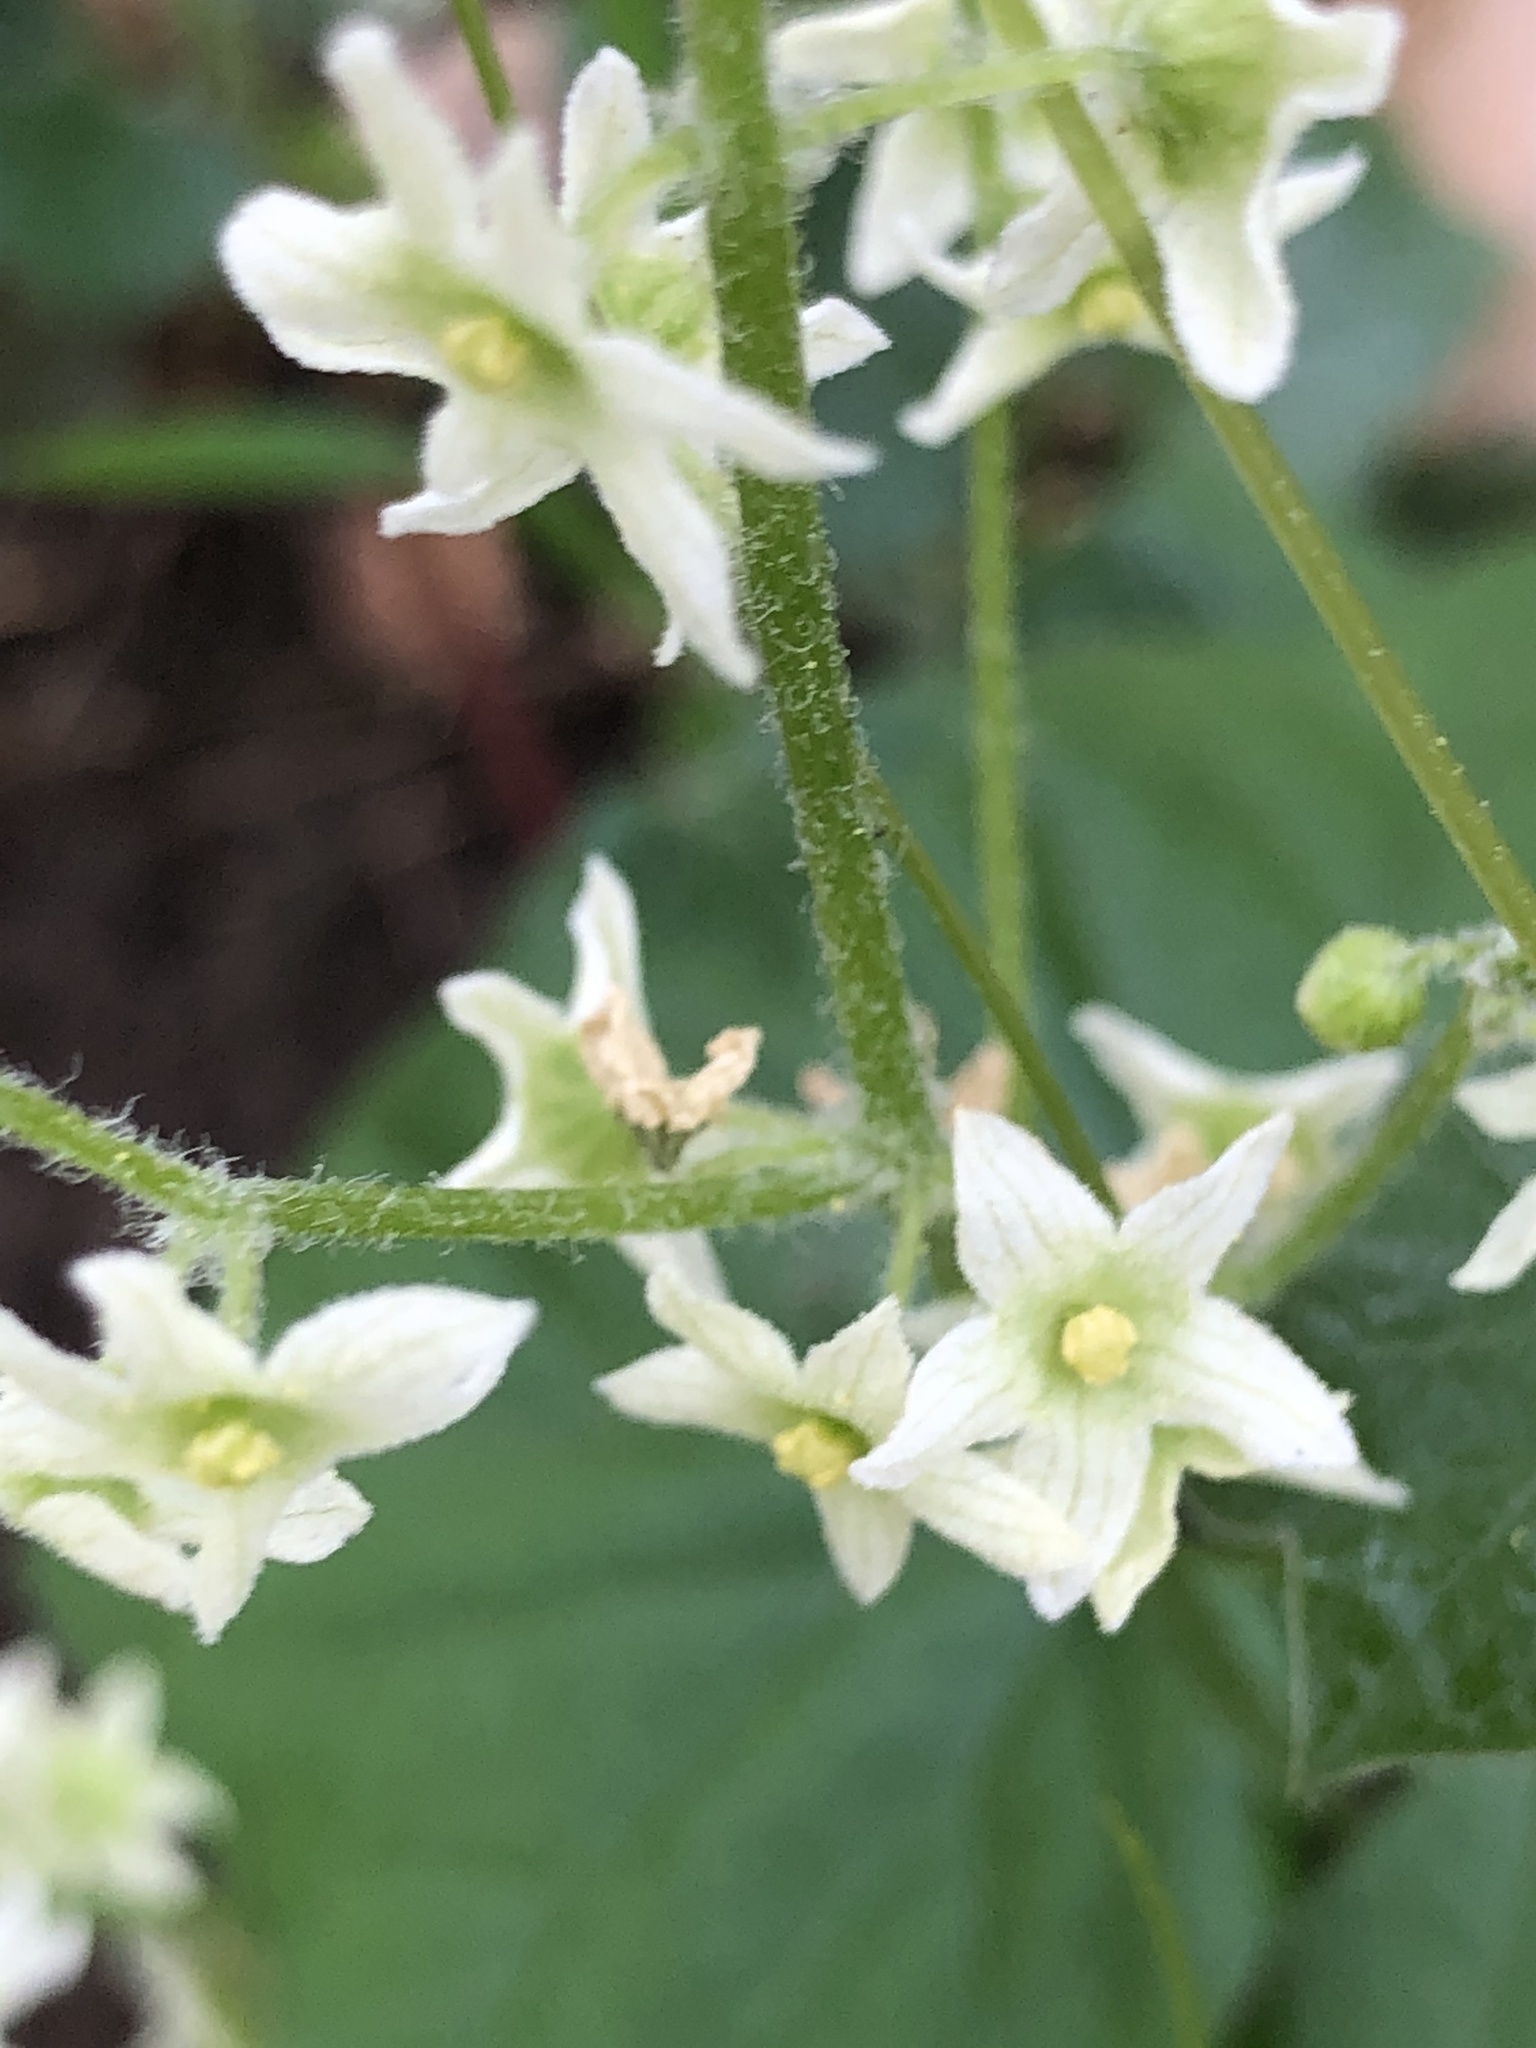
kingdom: Plantae
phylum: Tracheophyta
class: Magnoliopsida
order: Cucurbitales
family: Cucurbitaceae
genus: Marah
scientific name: Marah fabacea
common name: California manroot
